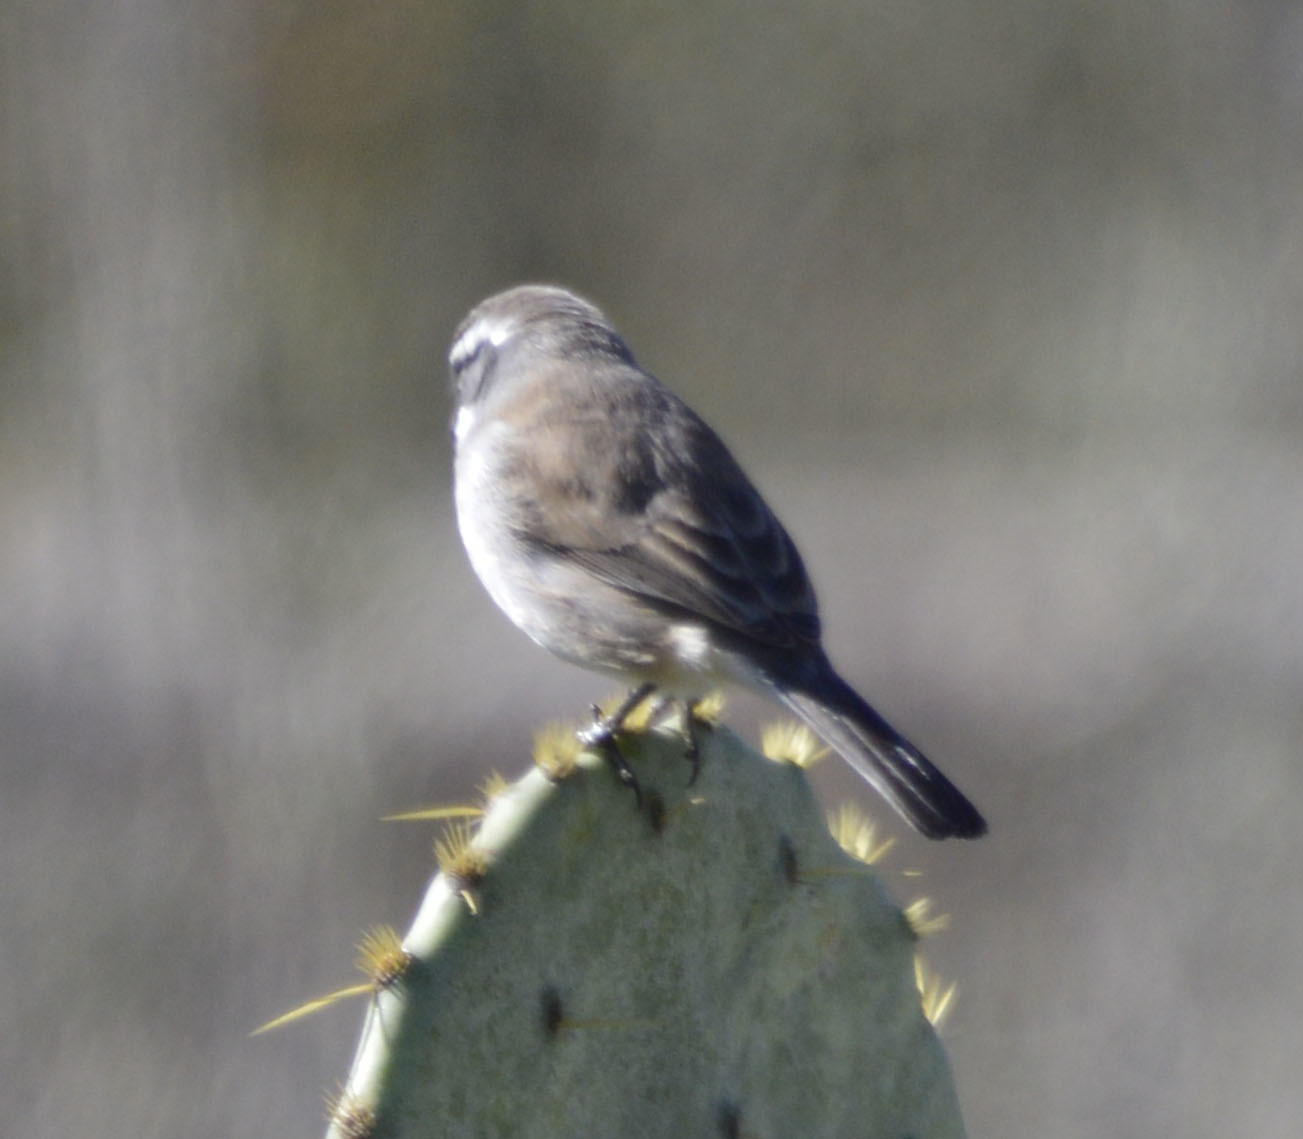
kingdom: Animalia
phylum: Chordata
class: Aves
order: Passeriformes
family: Passerellidae
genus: Amphispiza
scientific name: Amphispiza bilineata
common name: Black-throated sparrow
